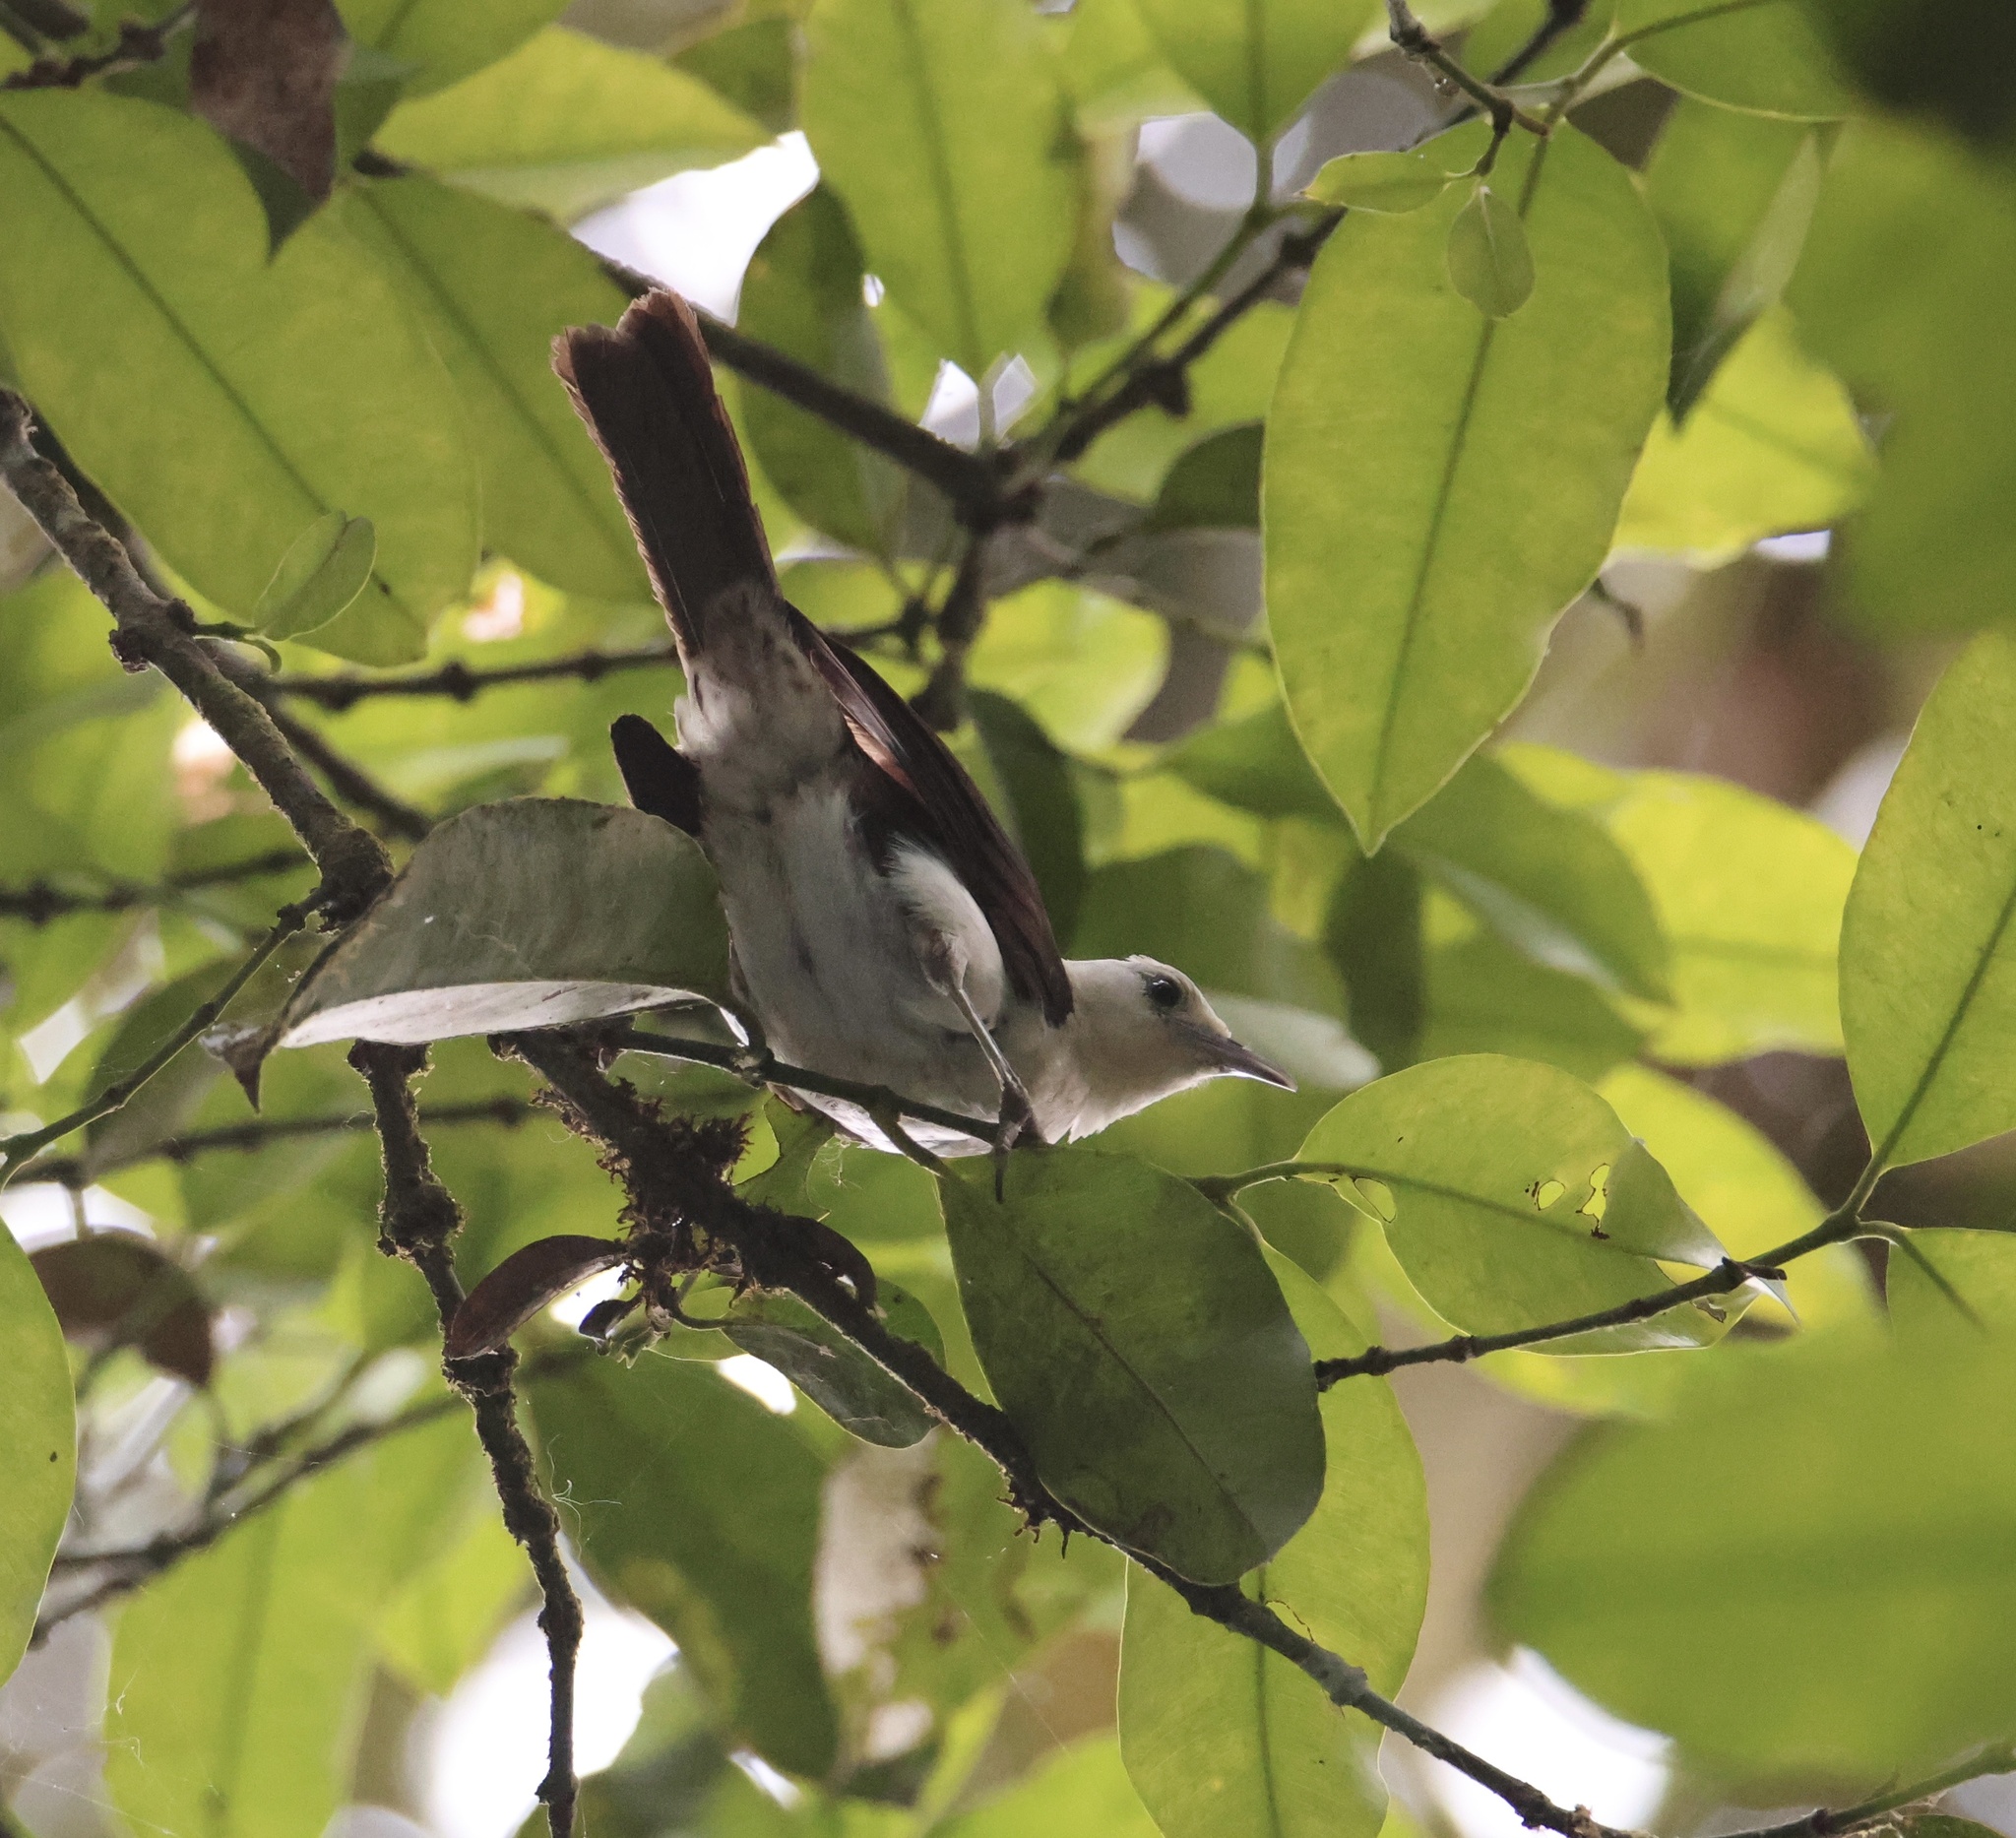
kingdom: Animalia
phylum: Chordata
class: Aves
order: Passeriformes
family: Troglodytidae
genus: Campylorhynchus
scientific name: Campylorhynchus albobrunneus
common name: White-headed wren
